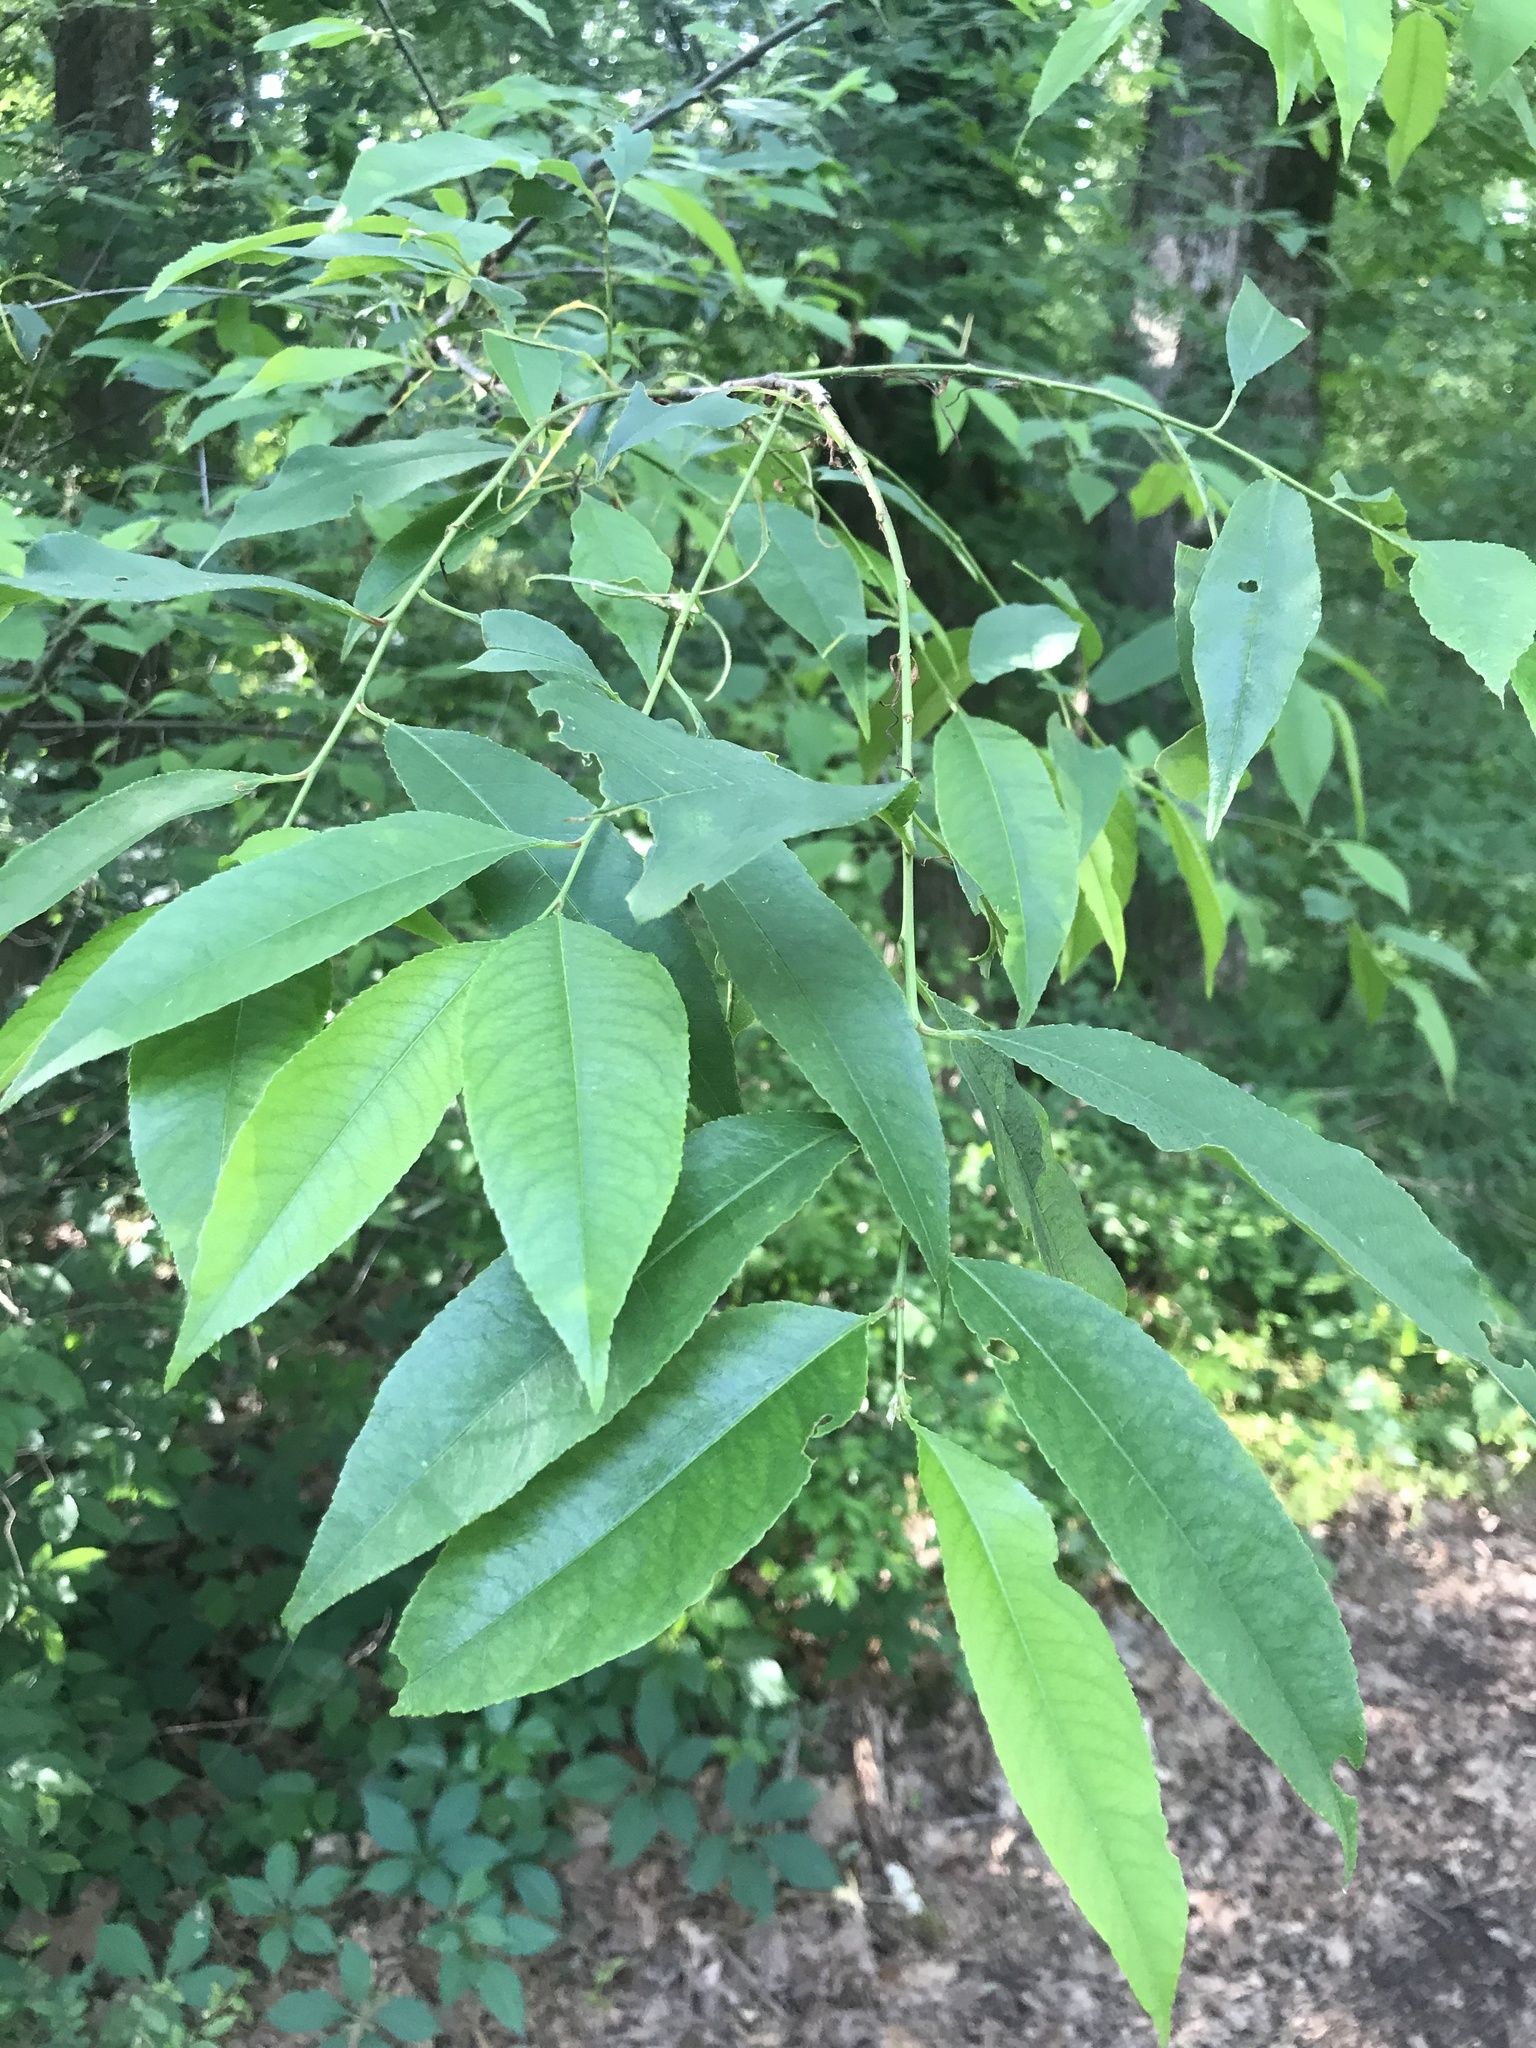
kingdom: Plantae
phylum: Tracheophyta
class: Magnoliopsida
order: Rosales
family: Rosaceae
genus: Prunus
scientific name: Prunus serotina
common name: Black cherry
